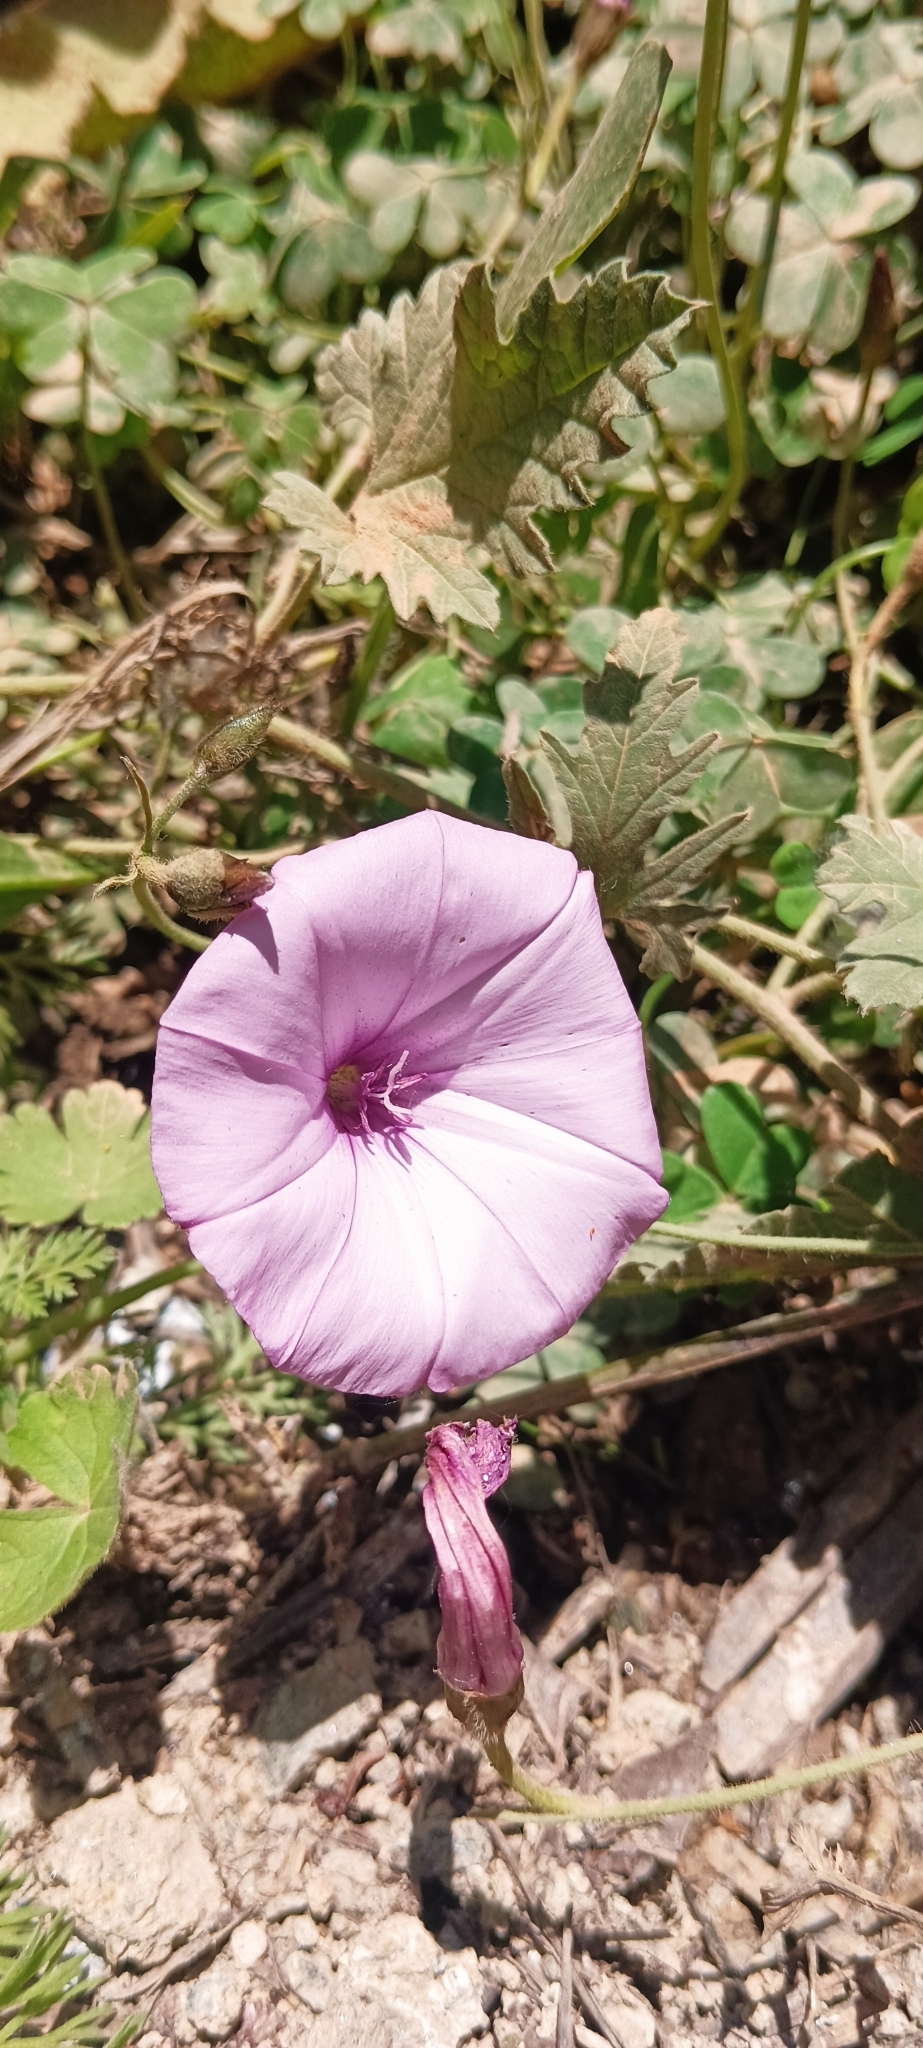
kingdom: Plantae
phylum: Tracheophyta
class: Magnoliopsida
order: Solanales
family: Convolvulaceae
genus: Convolvulus
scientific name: Convolvulus althaeoides
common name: Mallow bindweed
